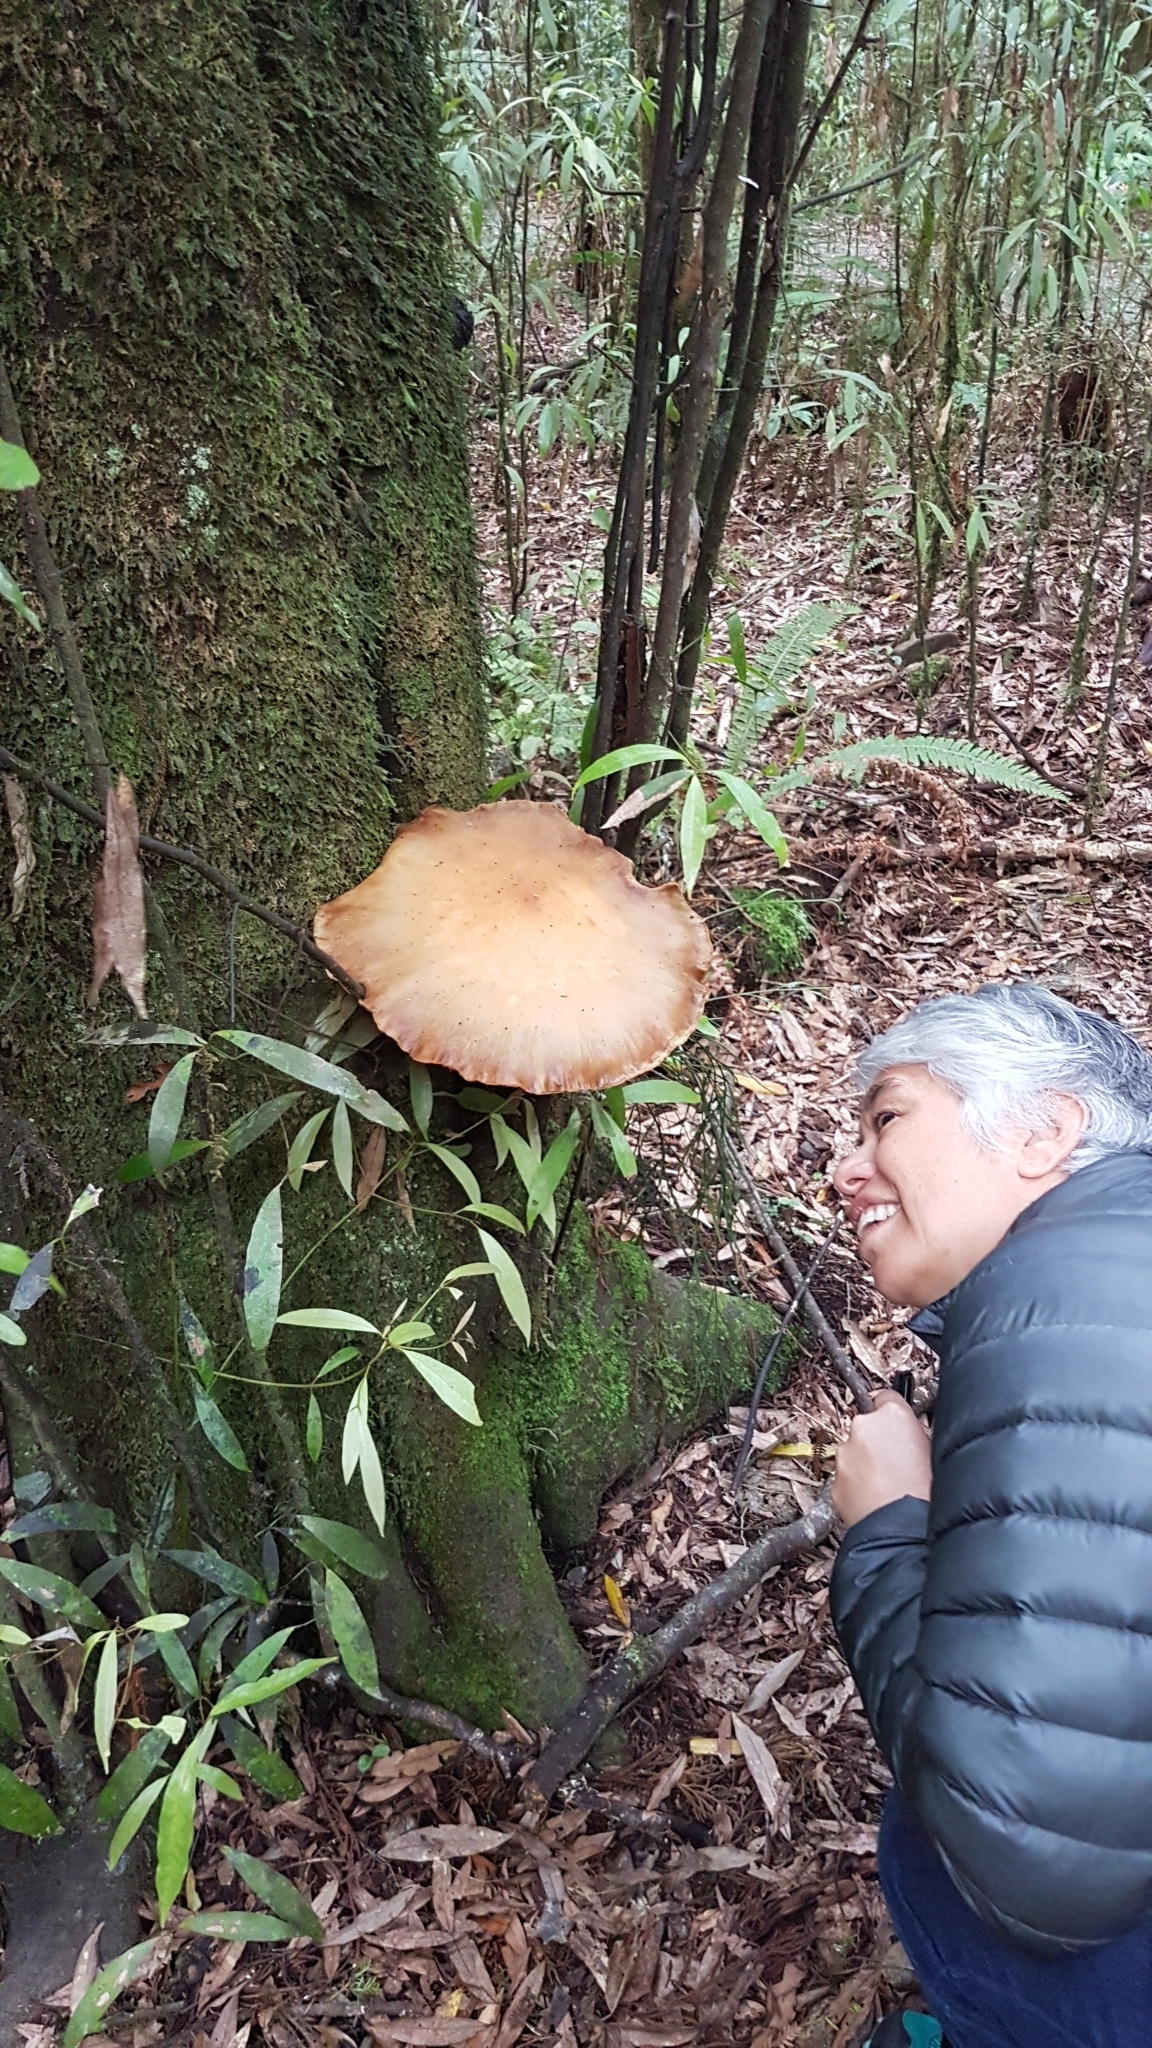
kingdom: Fungi
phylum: Basidiomycota
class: Agaricomycetes
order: Agaricales
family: Tubariaceae
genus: Cyclocybe
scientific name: Cyclocybe parasitica
